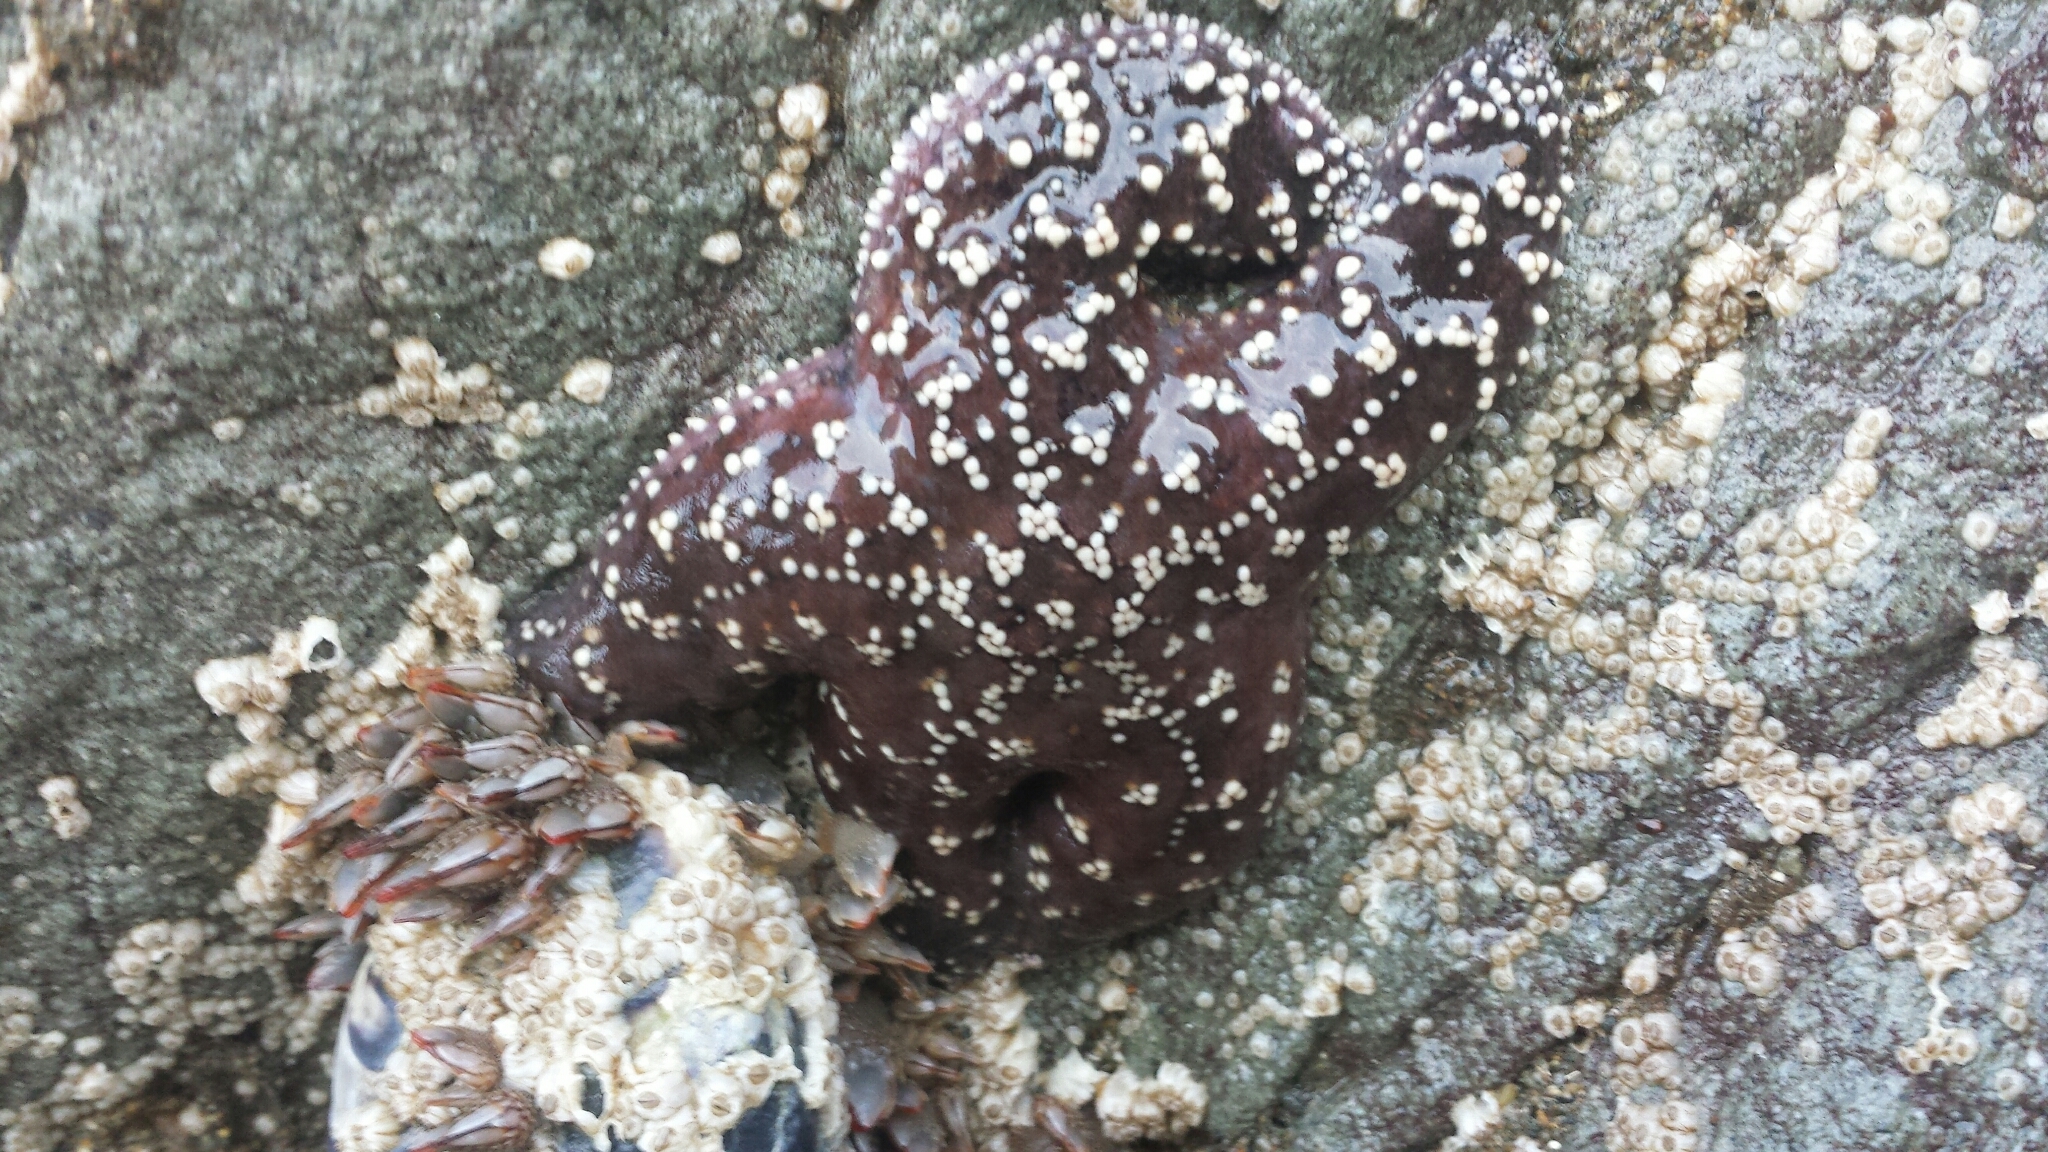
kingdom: Animalia
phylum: Echinodermata
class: Asteroidea
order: Forcipulatida
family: Asteriidae
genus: Pisaster
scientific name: Pisaster ochraceus
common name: Ochre stars
